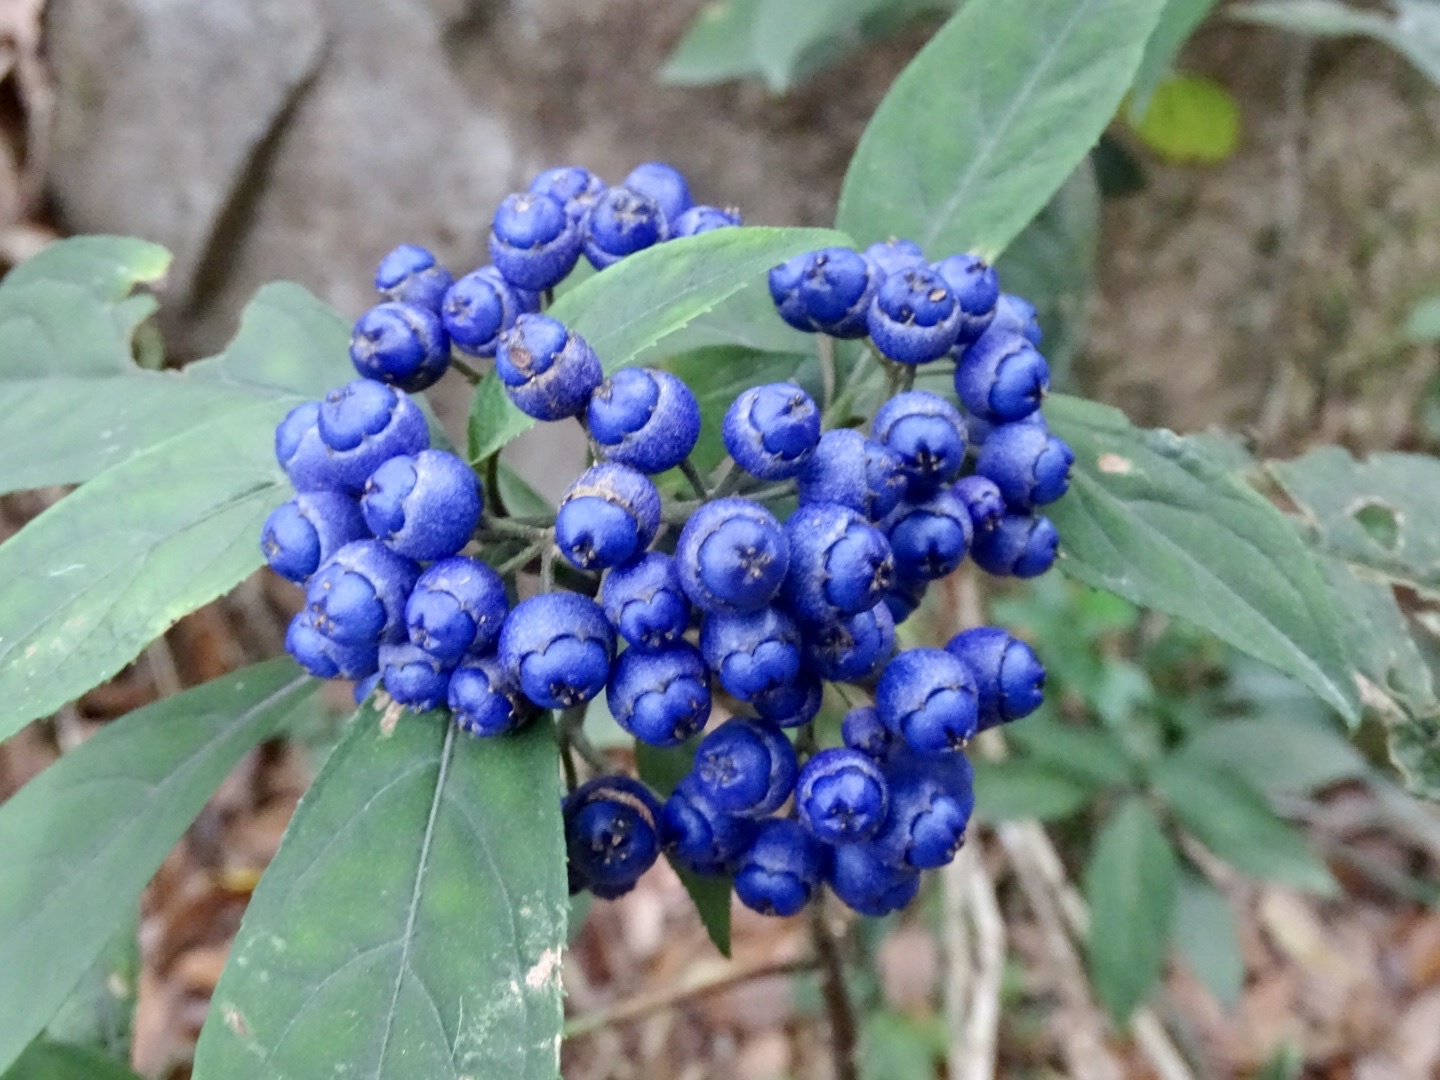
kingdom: Plantae
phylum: Tracheophyta
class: Magnoliopsida
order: Cornales
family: Hydrangeaceae
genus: Hydrangea
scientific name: Hydrangea febrifuga
